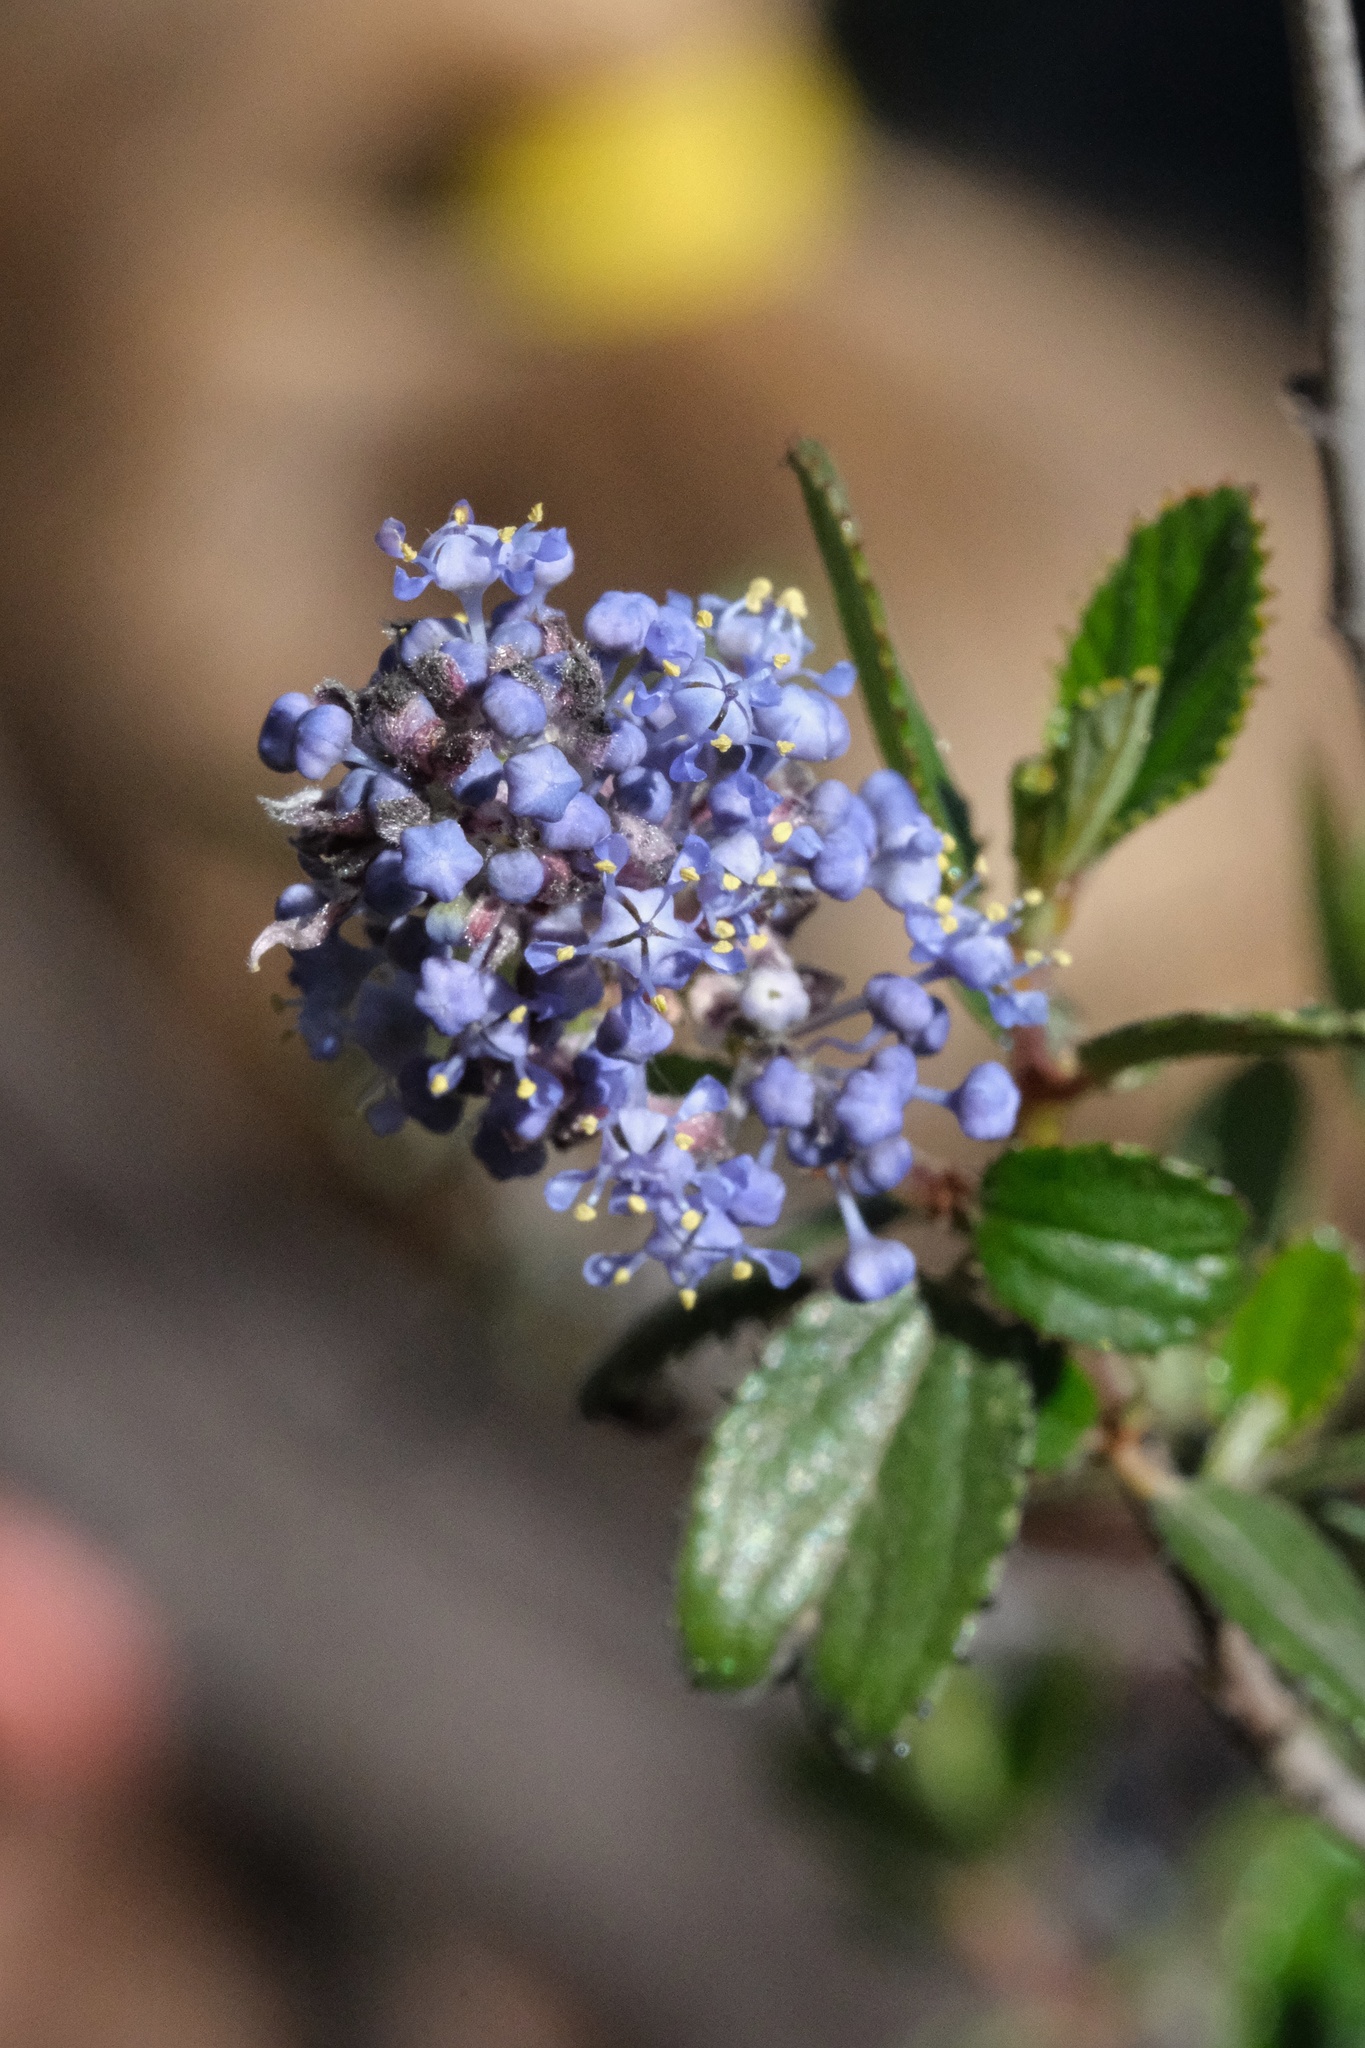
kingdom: Plantae
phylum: Tracheophyta
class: Magnoliopsida
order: Rosales
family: Rhamnaceae
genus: Ceanothus
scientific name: Ceanothus tomentosus
